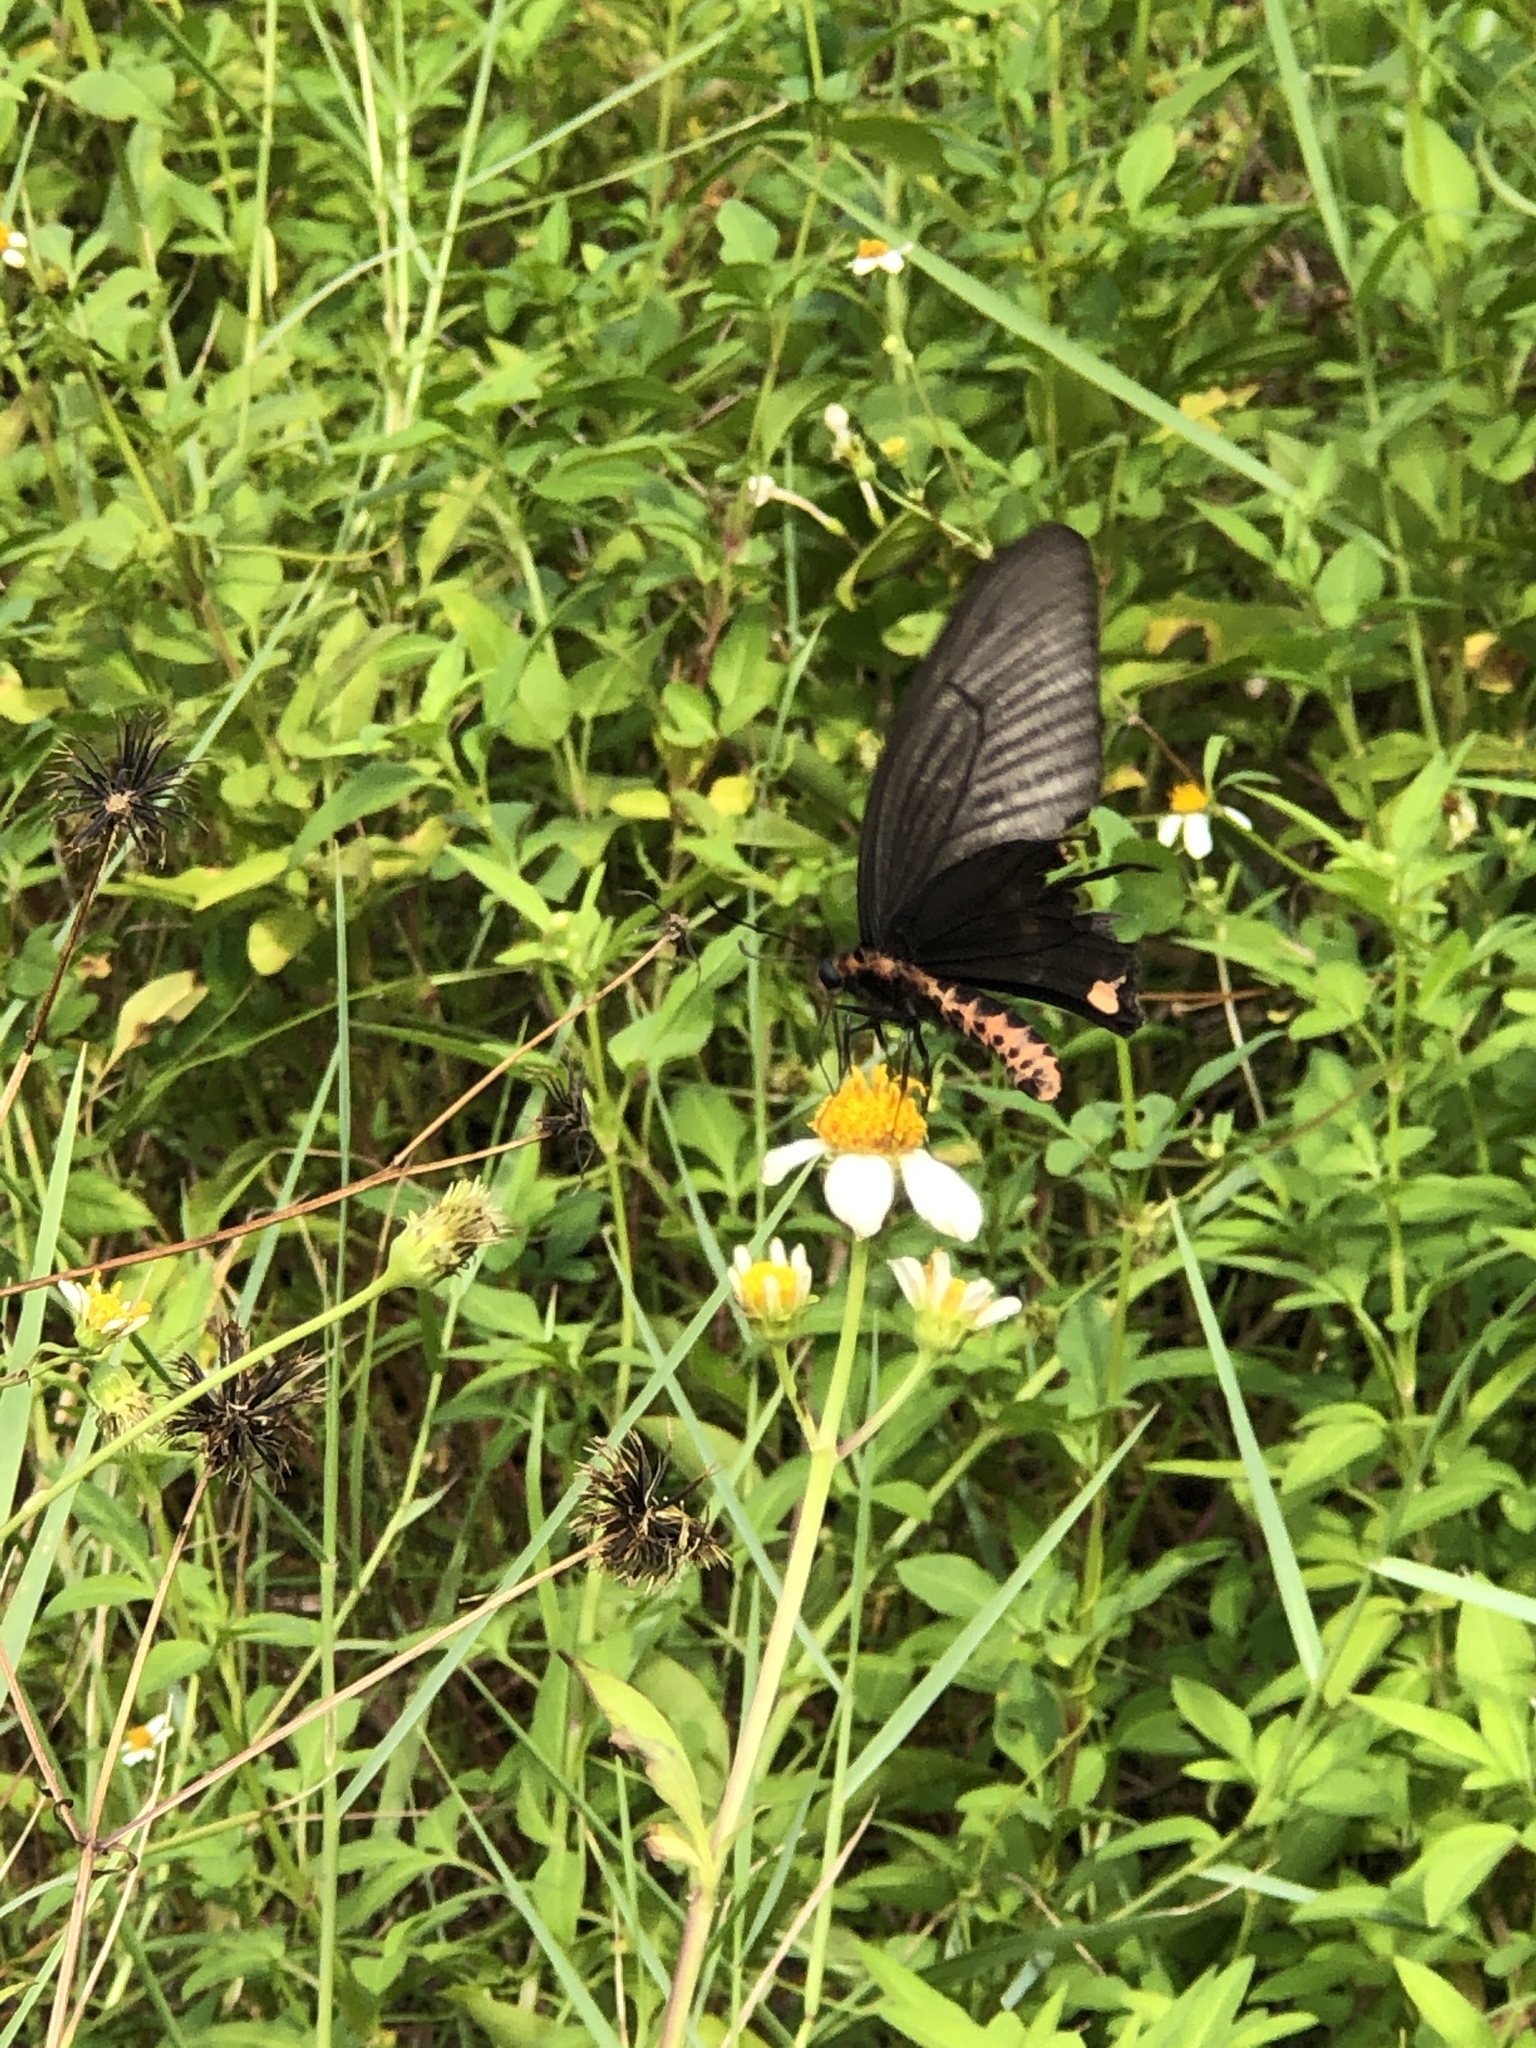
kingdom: Animalia
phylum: Arthropoda
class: Insecta
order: Lepidoptera
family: Papilionidae
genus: Byasa
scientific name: Byasa alcinous
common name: Chinese windmill
